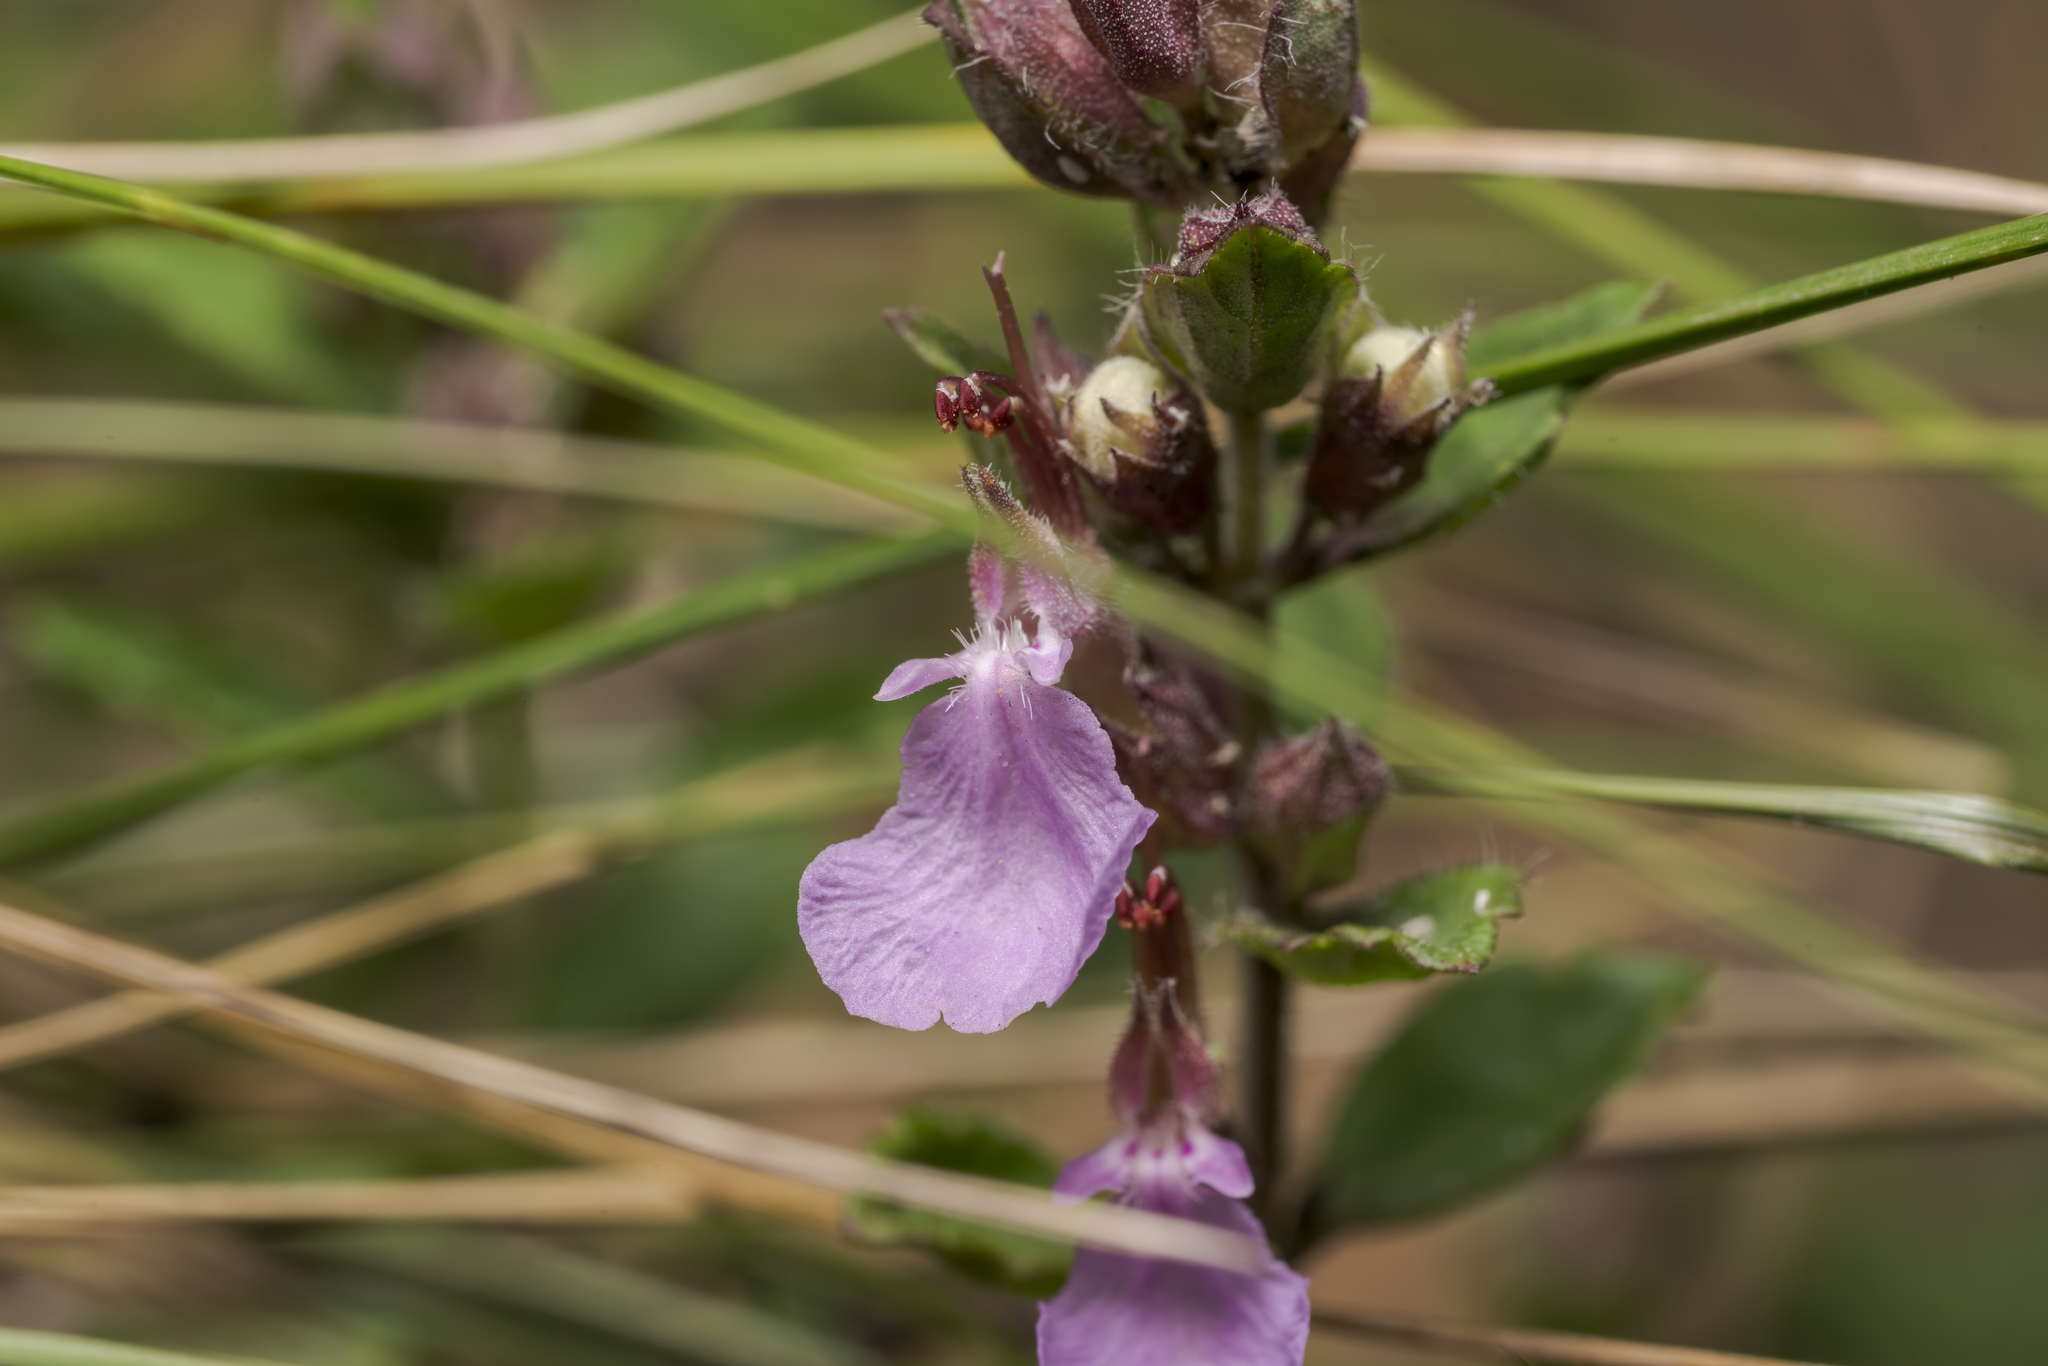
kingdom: Plantae
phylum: Tracheophyta
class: Magnoliopsida
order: Lamiales
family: Lamiaceae
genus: Teucrium
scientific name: Teucrium chamaedrys
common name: Wall germander
